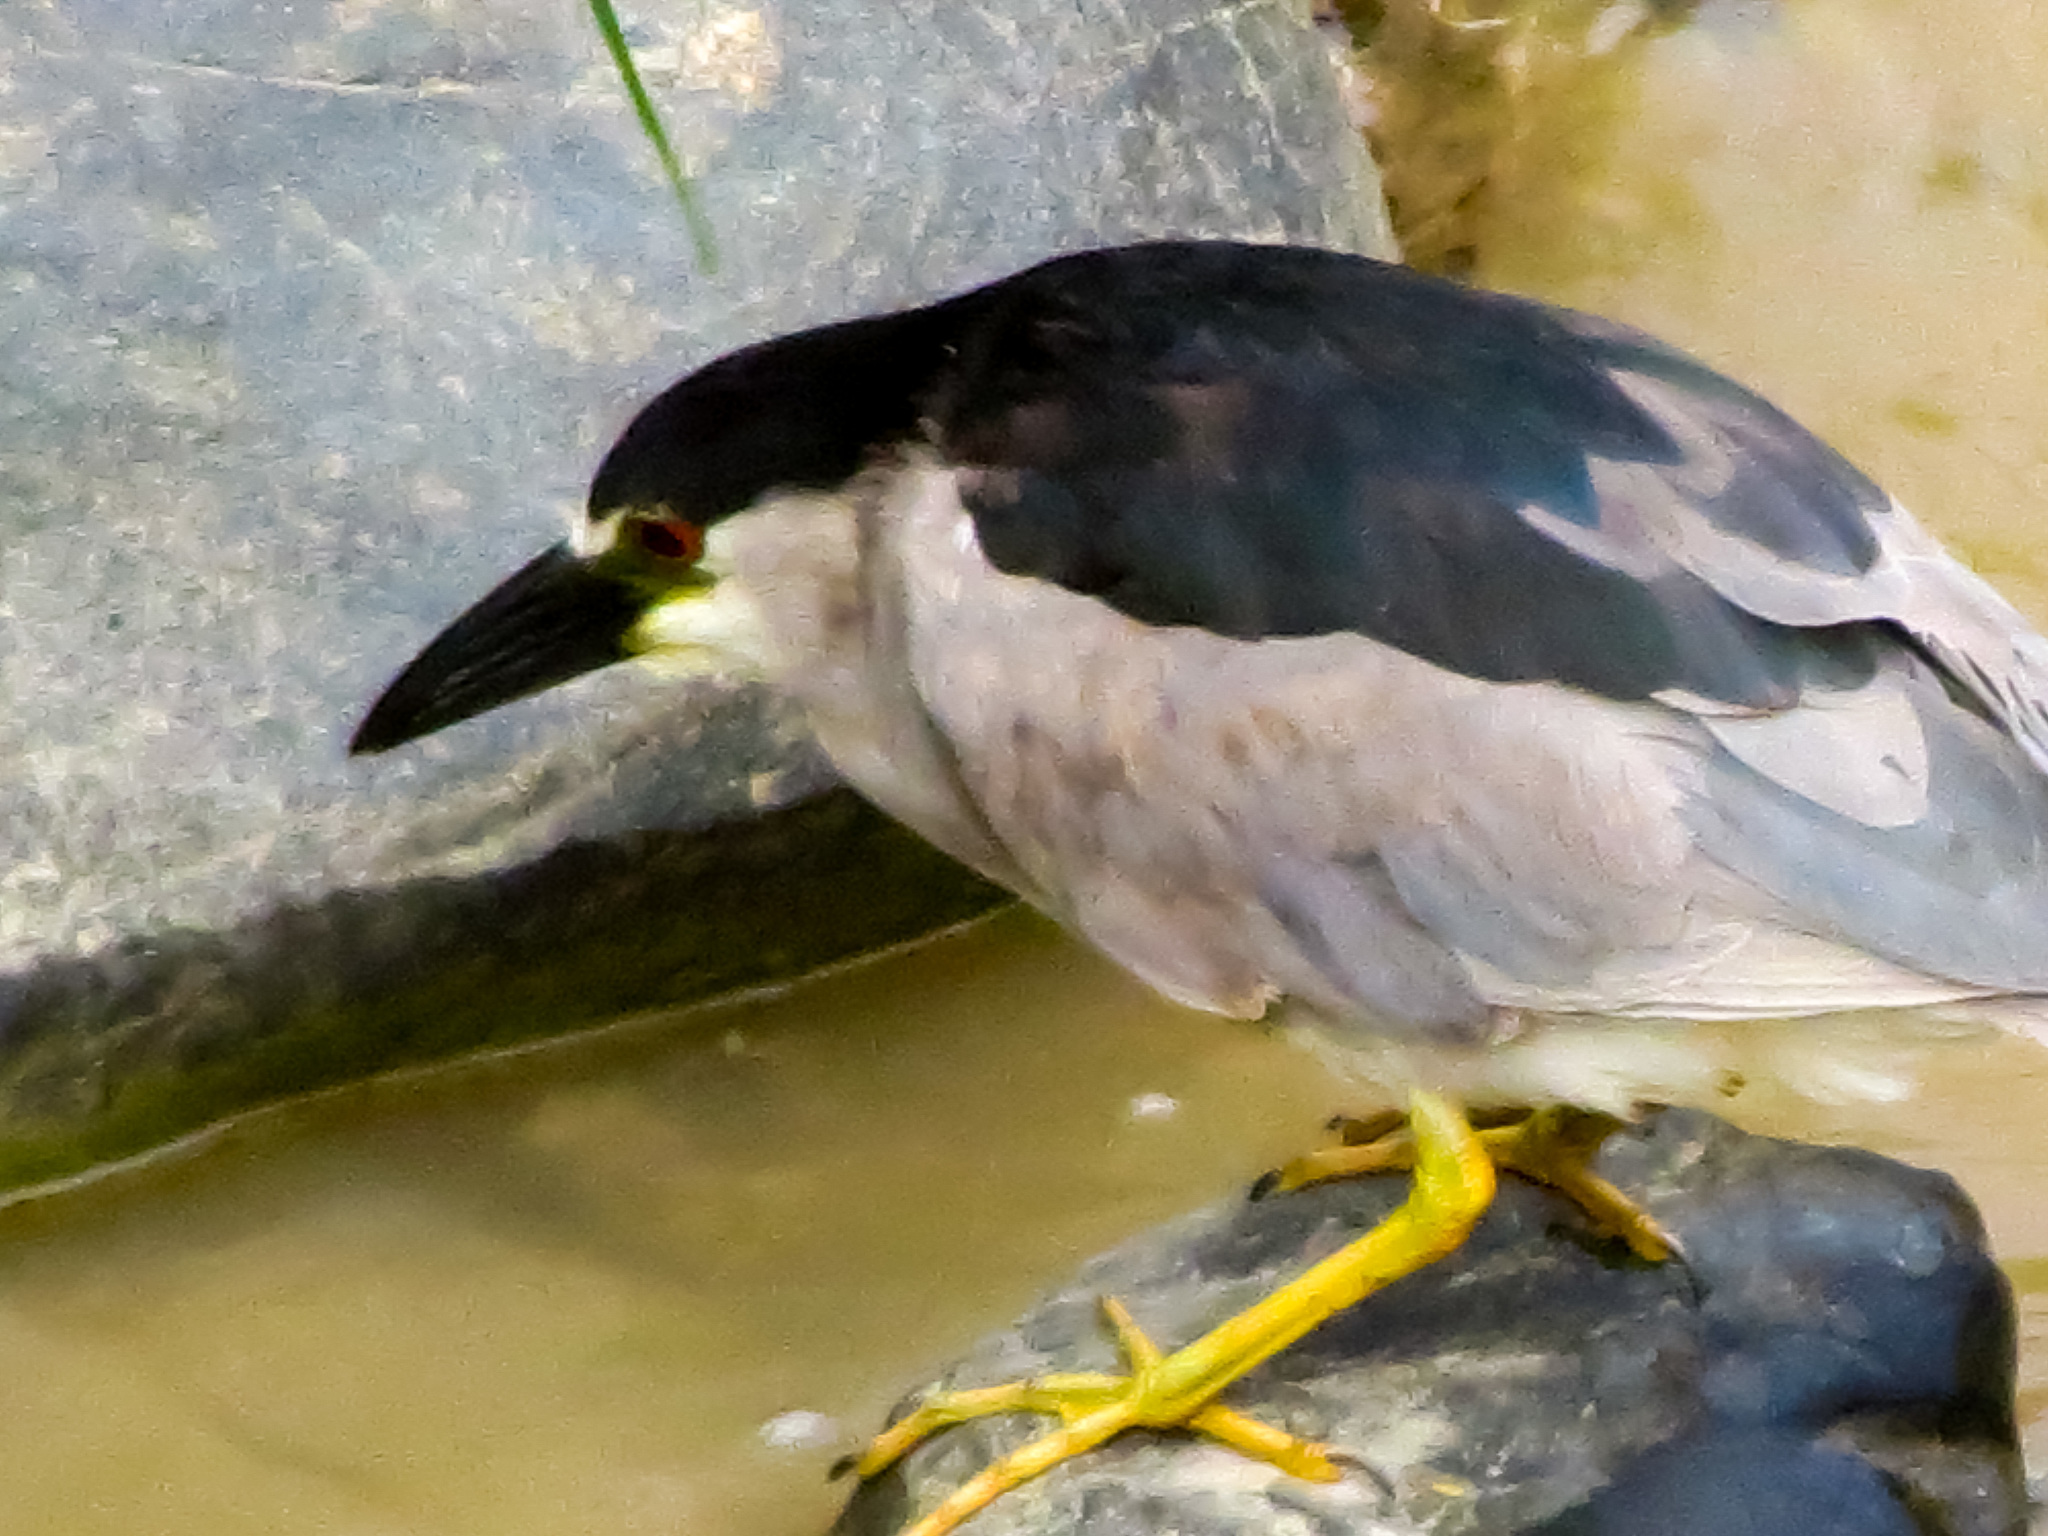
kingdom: Animalia
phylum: Chordata
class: Aves
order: Pelecaniformes
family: Ardeidae
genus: Nycticorax
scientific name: Nycticorax nycticorax
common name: Black-crowned night heron
